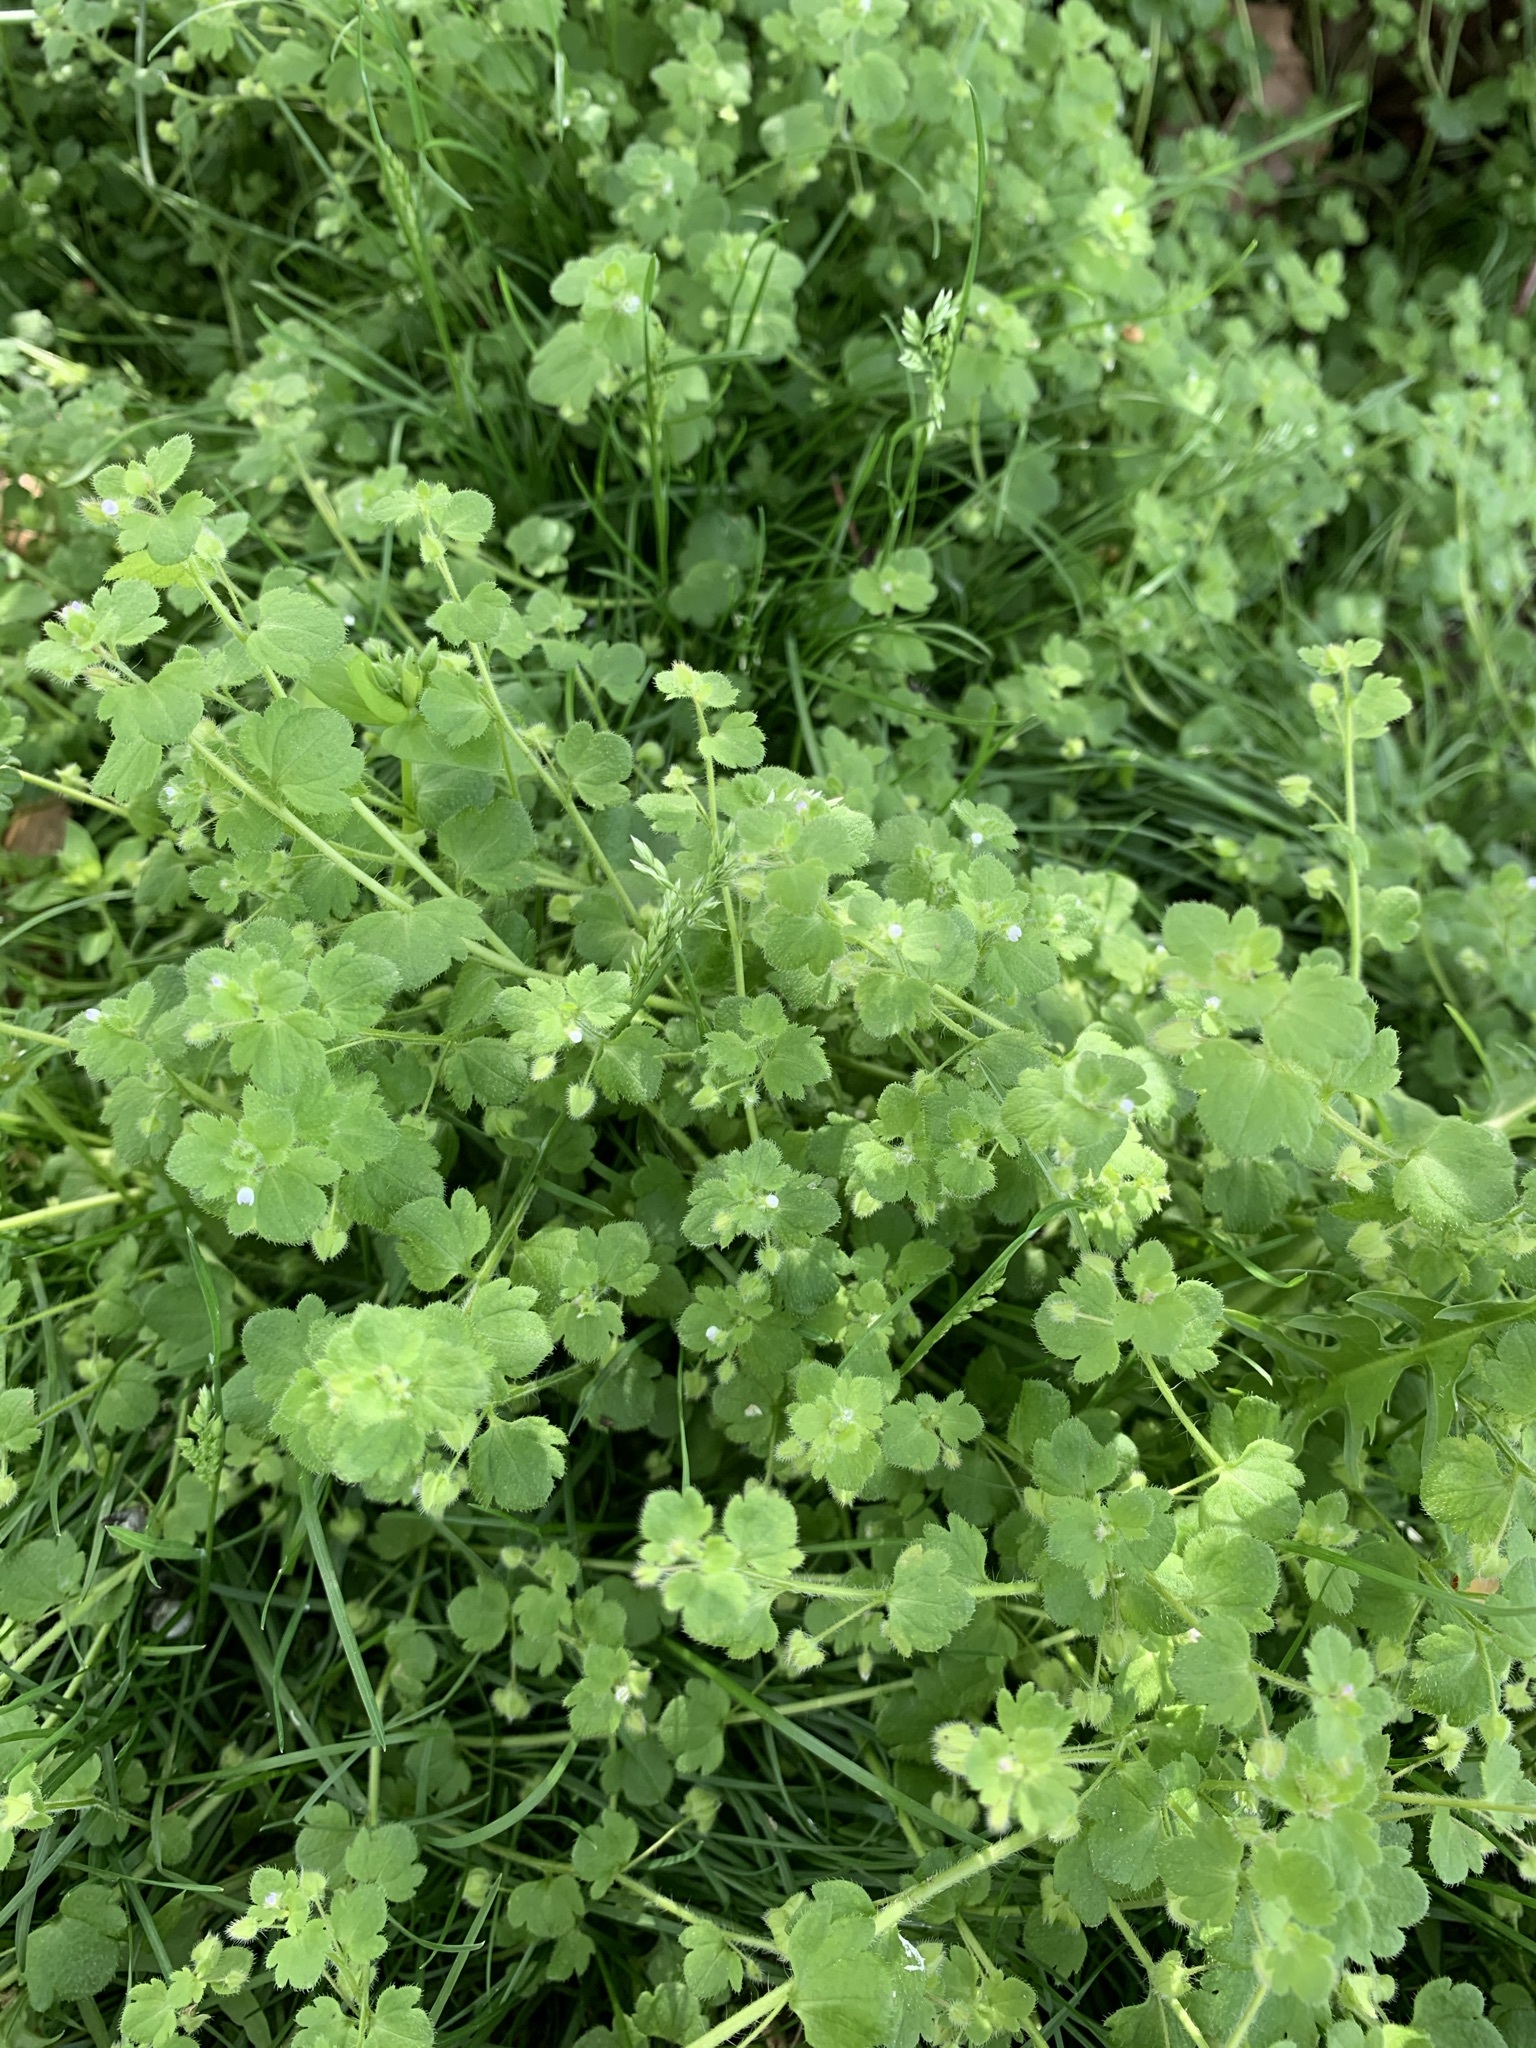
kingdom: Plantae
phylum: Tracheophyta
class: Magnoliopsida
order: Lamiales
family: Plantaginaceae
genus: Veronica
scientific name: Veronica sublobata
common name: False ivy-leaved speedwell
